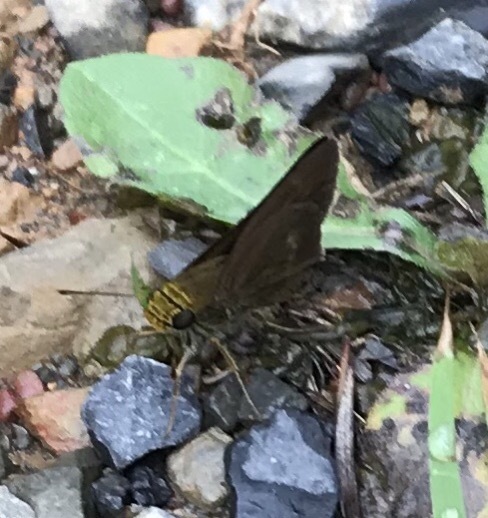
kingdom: Animalia
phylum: Arthropoda
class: Insecta
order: Lepidoptera
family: Hesperiidae
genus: Euphyes
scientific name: Euphyes vestris
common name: Dun skipper
